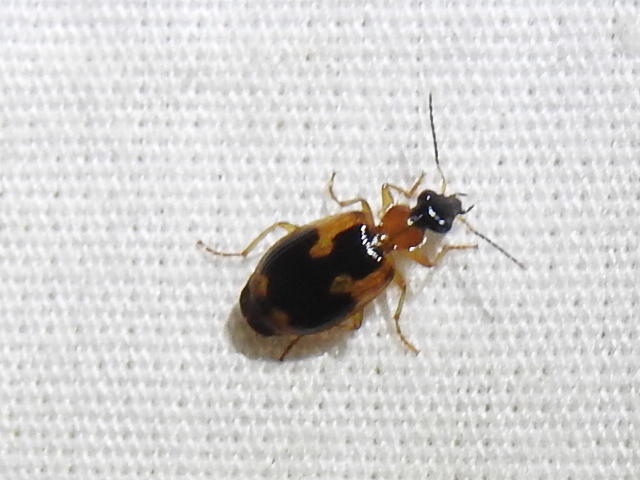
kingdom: Animalia
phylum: Arthropoda
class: Insecta
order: Coleoptera
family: Carabidae
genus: Lebia
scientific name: Lebia analis
